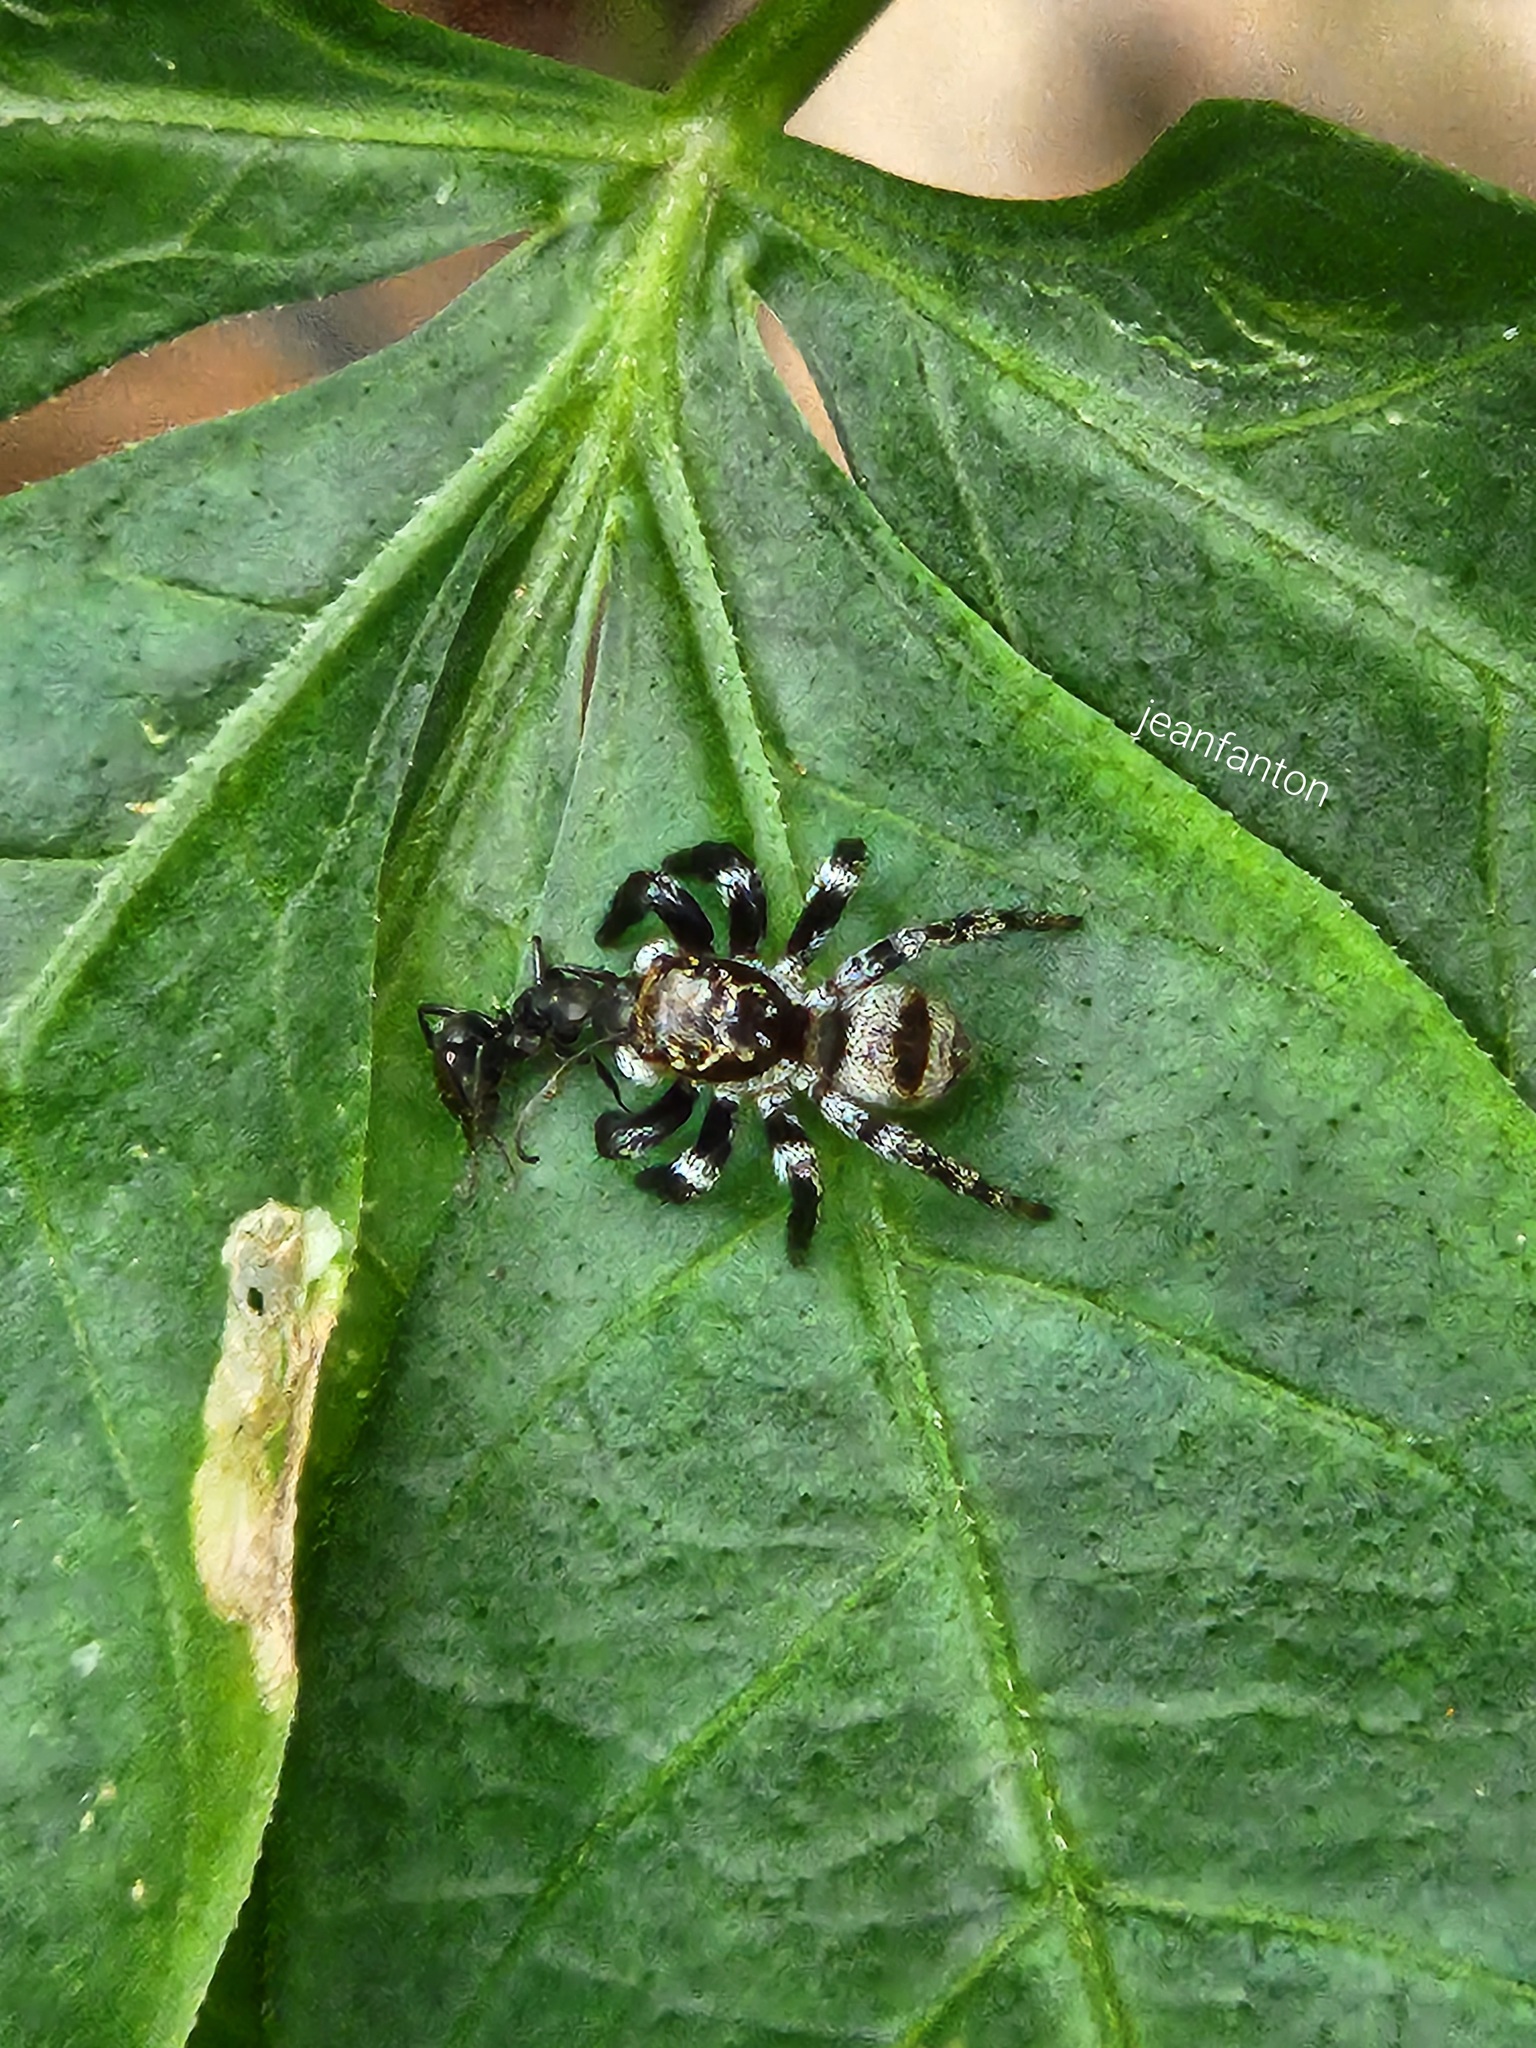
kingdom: Animalia
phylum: Arthropoda
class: Arachnida
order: Araneae
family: Salticidae
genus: Corythalia
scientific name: Corythalia conferta
